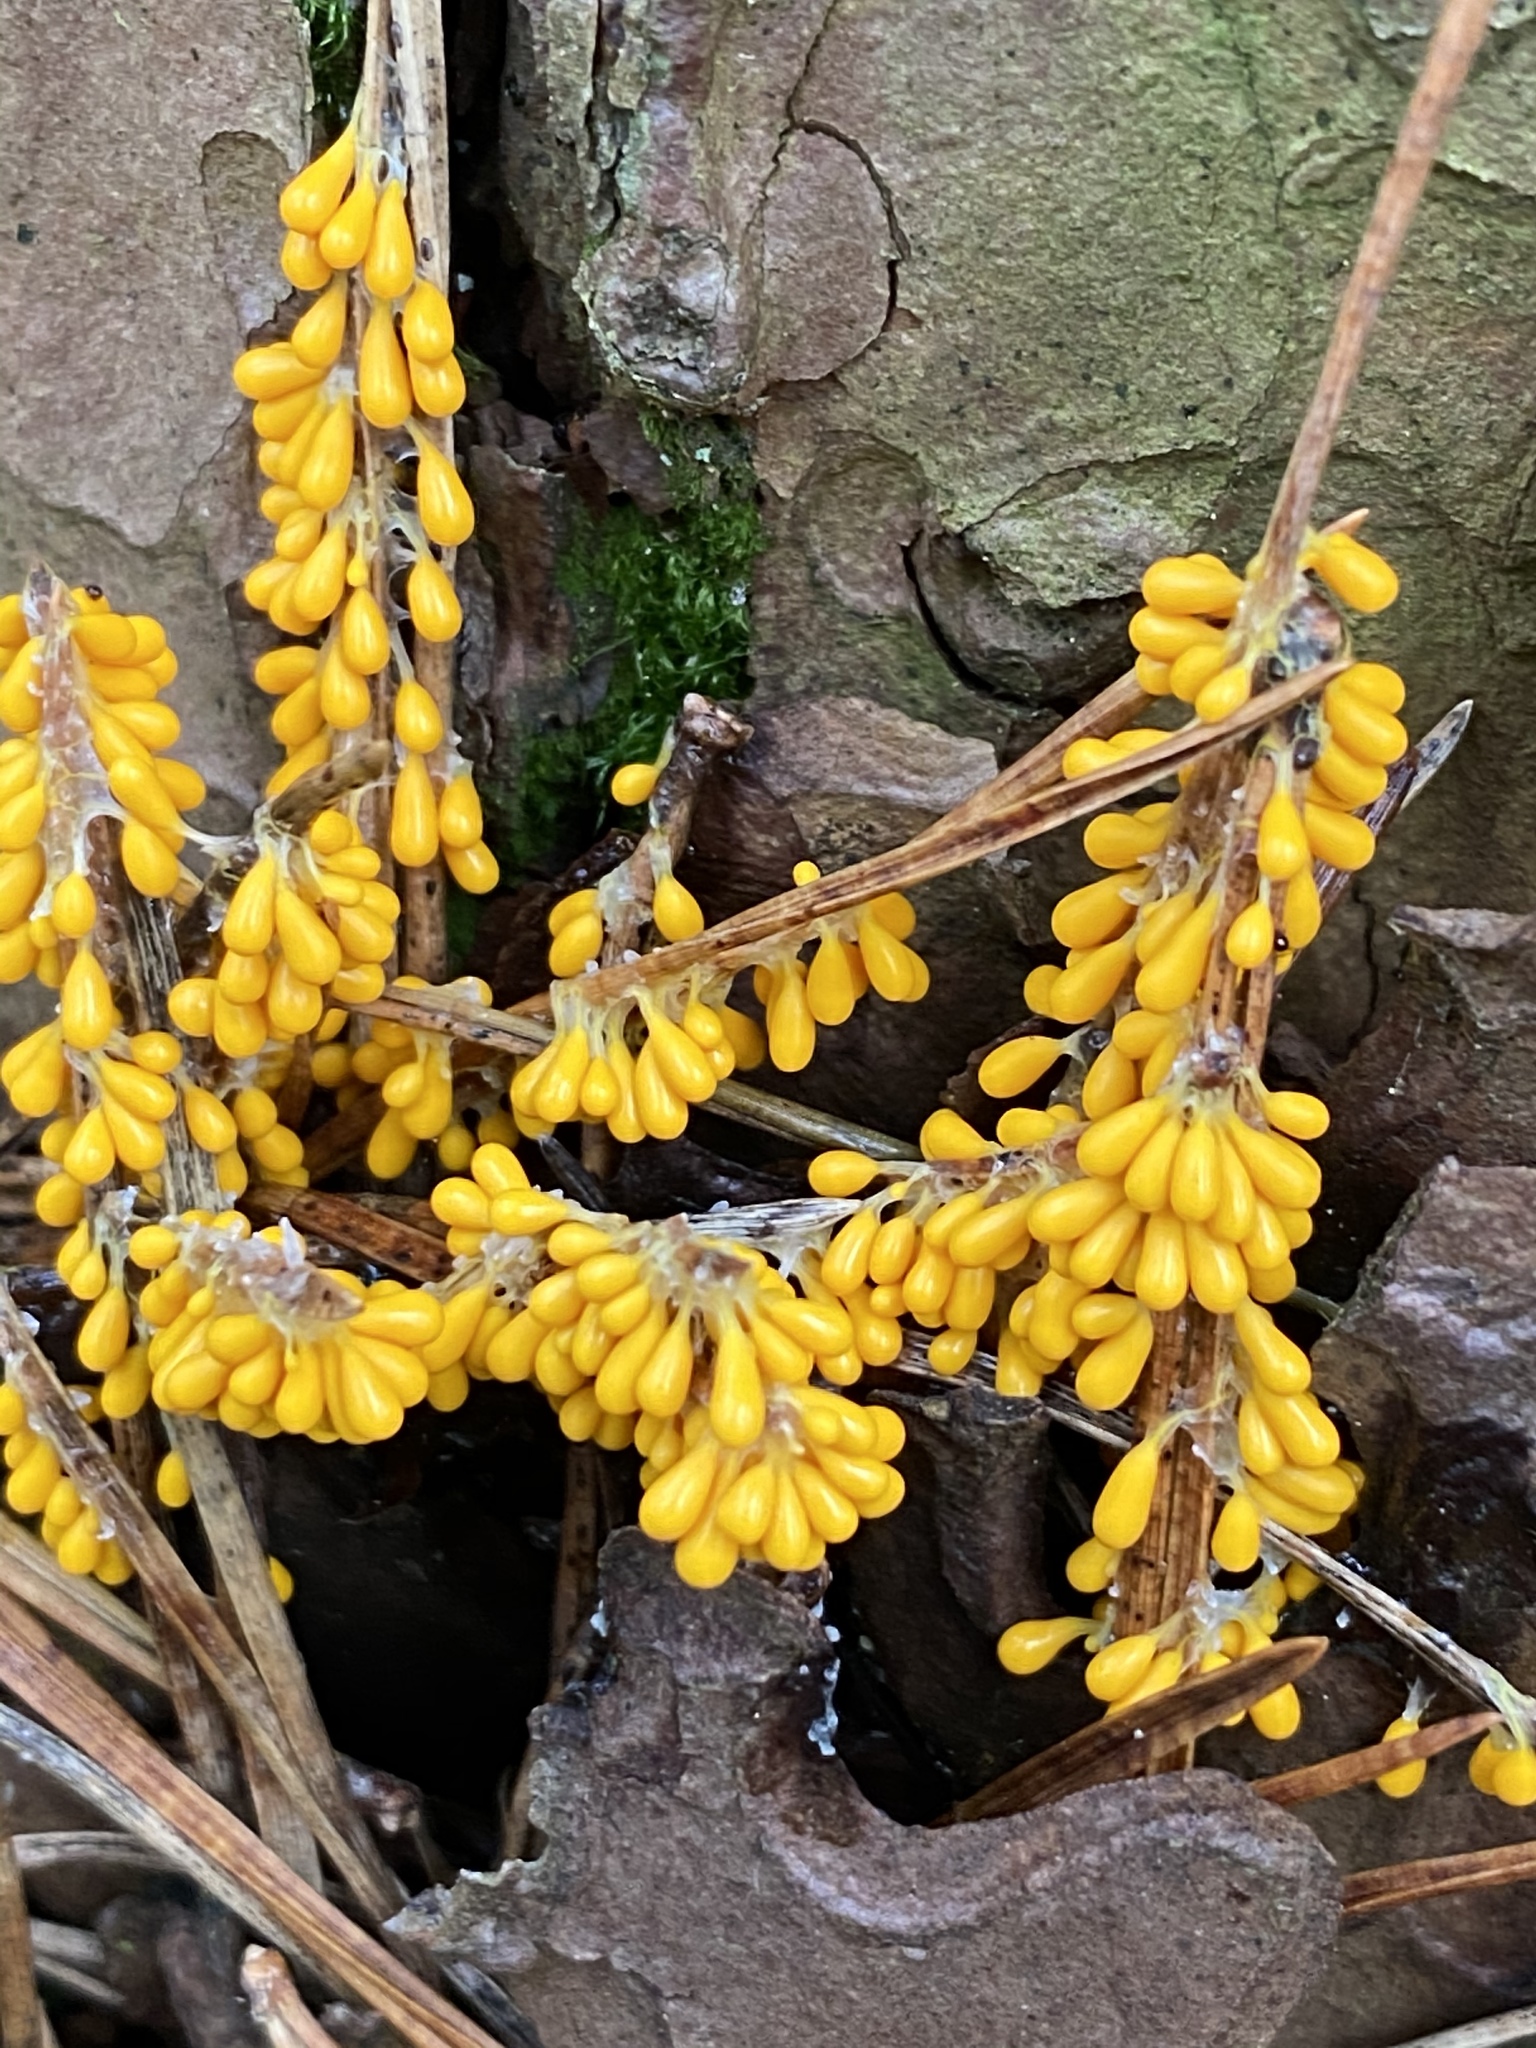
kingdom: Protozoa
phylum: Mycetozoa
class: Myxomycetes
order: Physarales
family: Physaraceae
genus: Leocarpus
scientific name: Leocarpus fragilis
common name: Insect-egg slime
